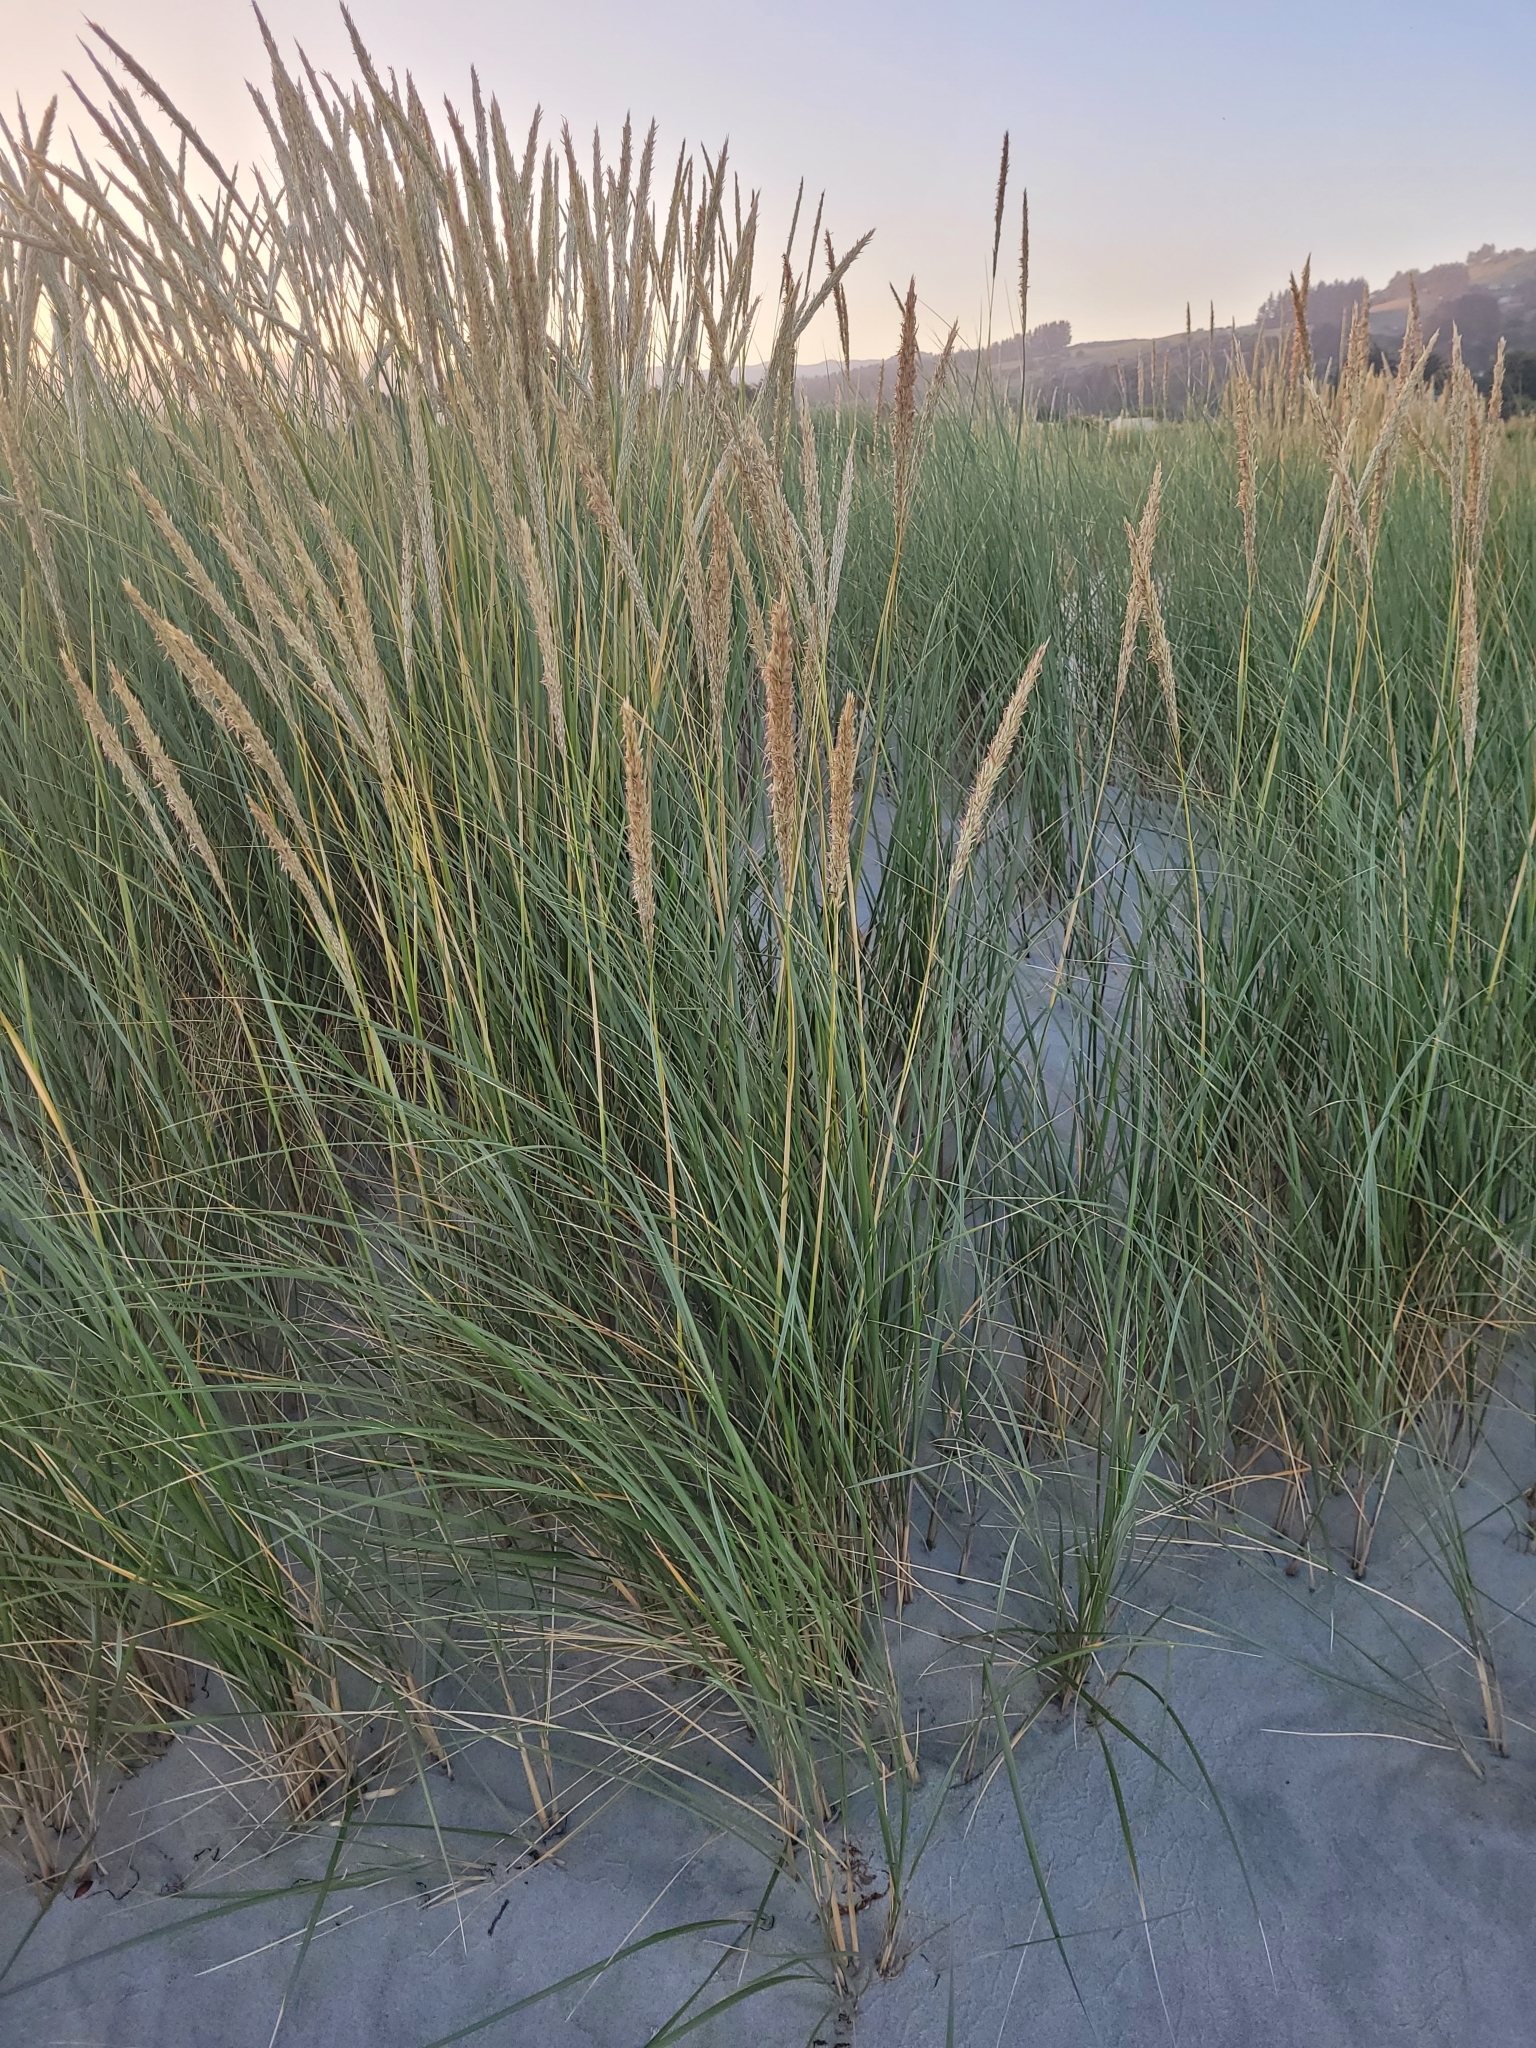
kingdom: Plantae
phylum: Tracheophyta
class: Liliopsida
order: Poales
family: Poaceae
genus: Calamagrostis
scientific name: Calamagrostis arenaria
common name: European beachgrass
